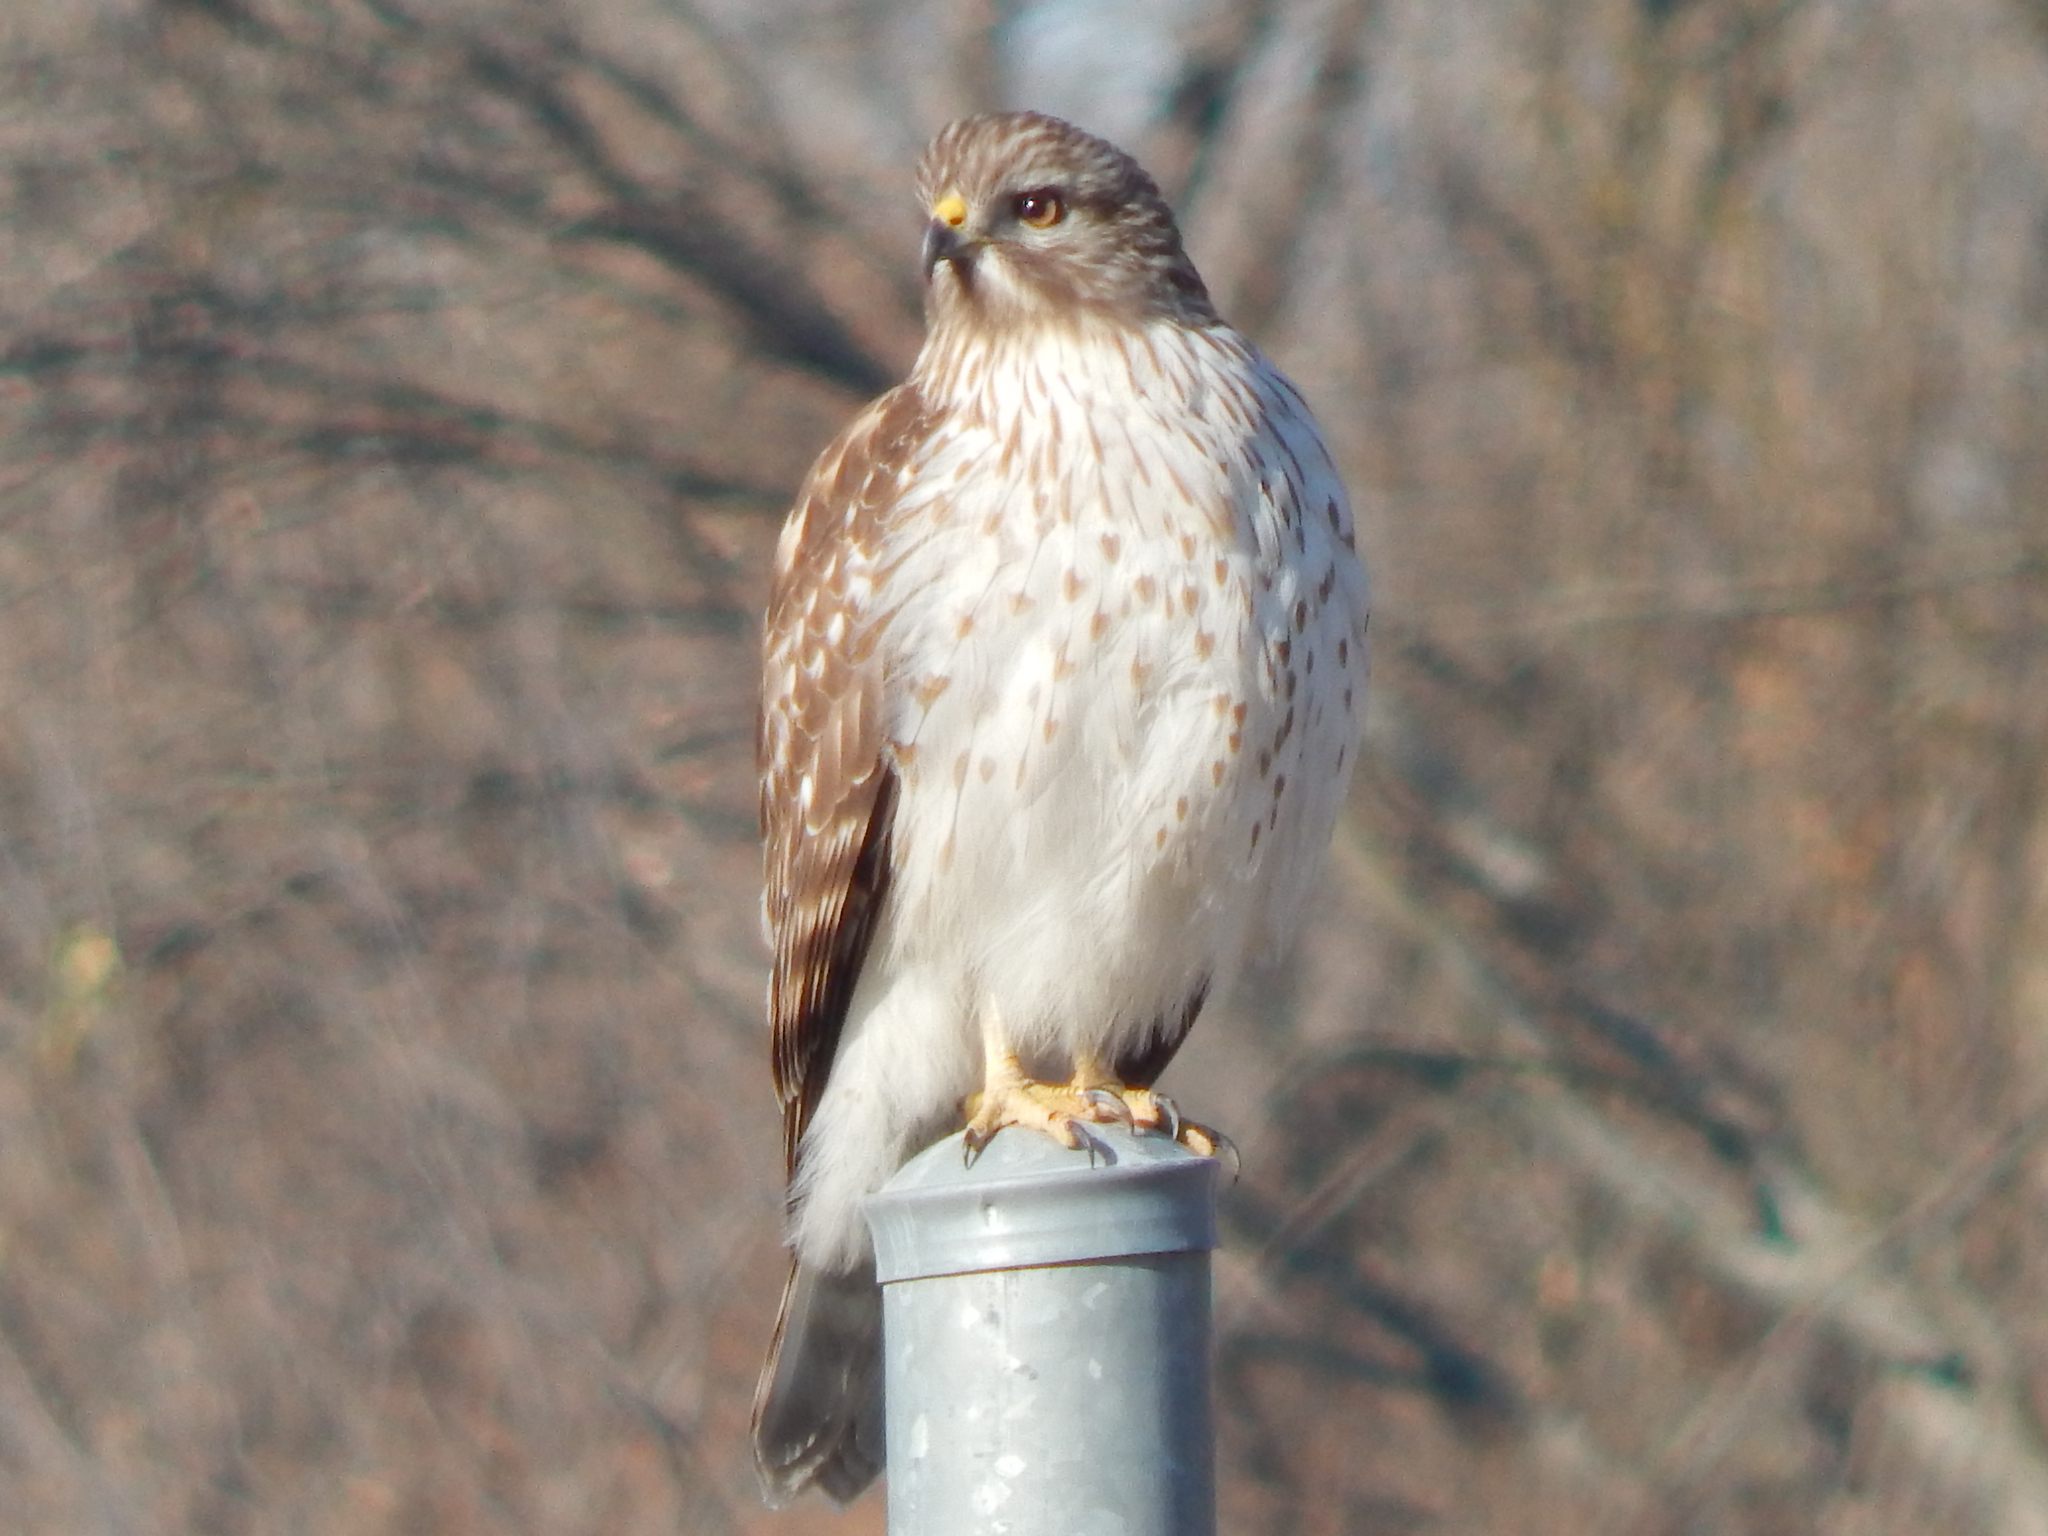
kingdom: Animalia
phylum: Chordata
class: Aves
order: Accipitriformes
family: Accipitridae
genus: Buteo
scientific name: Buteo lineatus
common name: Red-shouldered hawk
